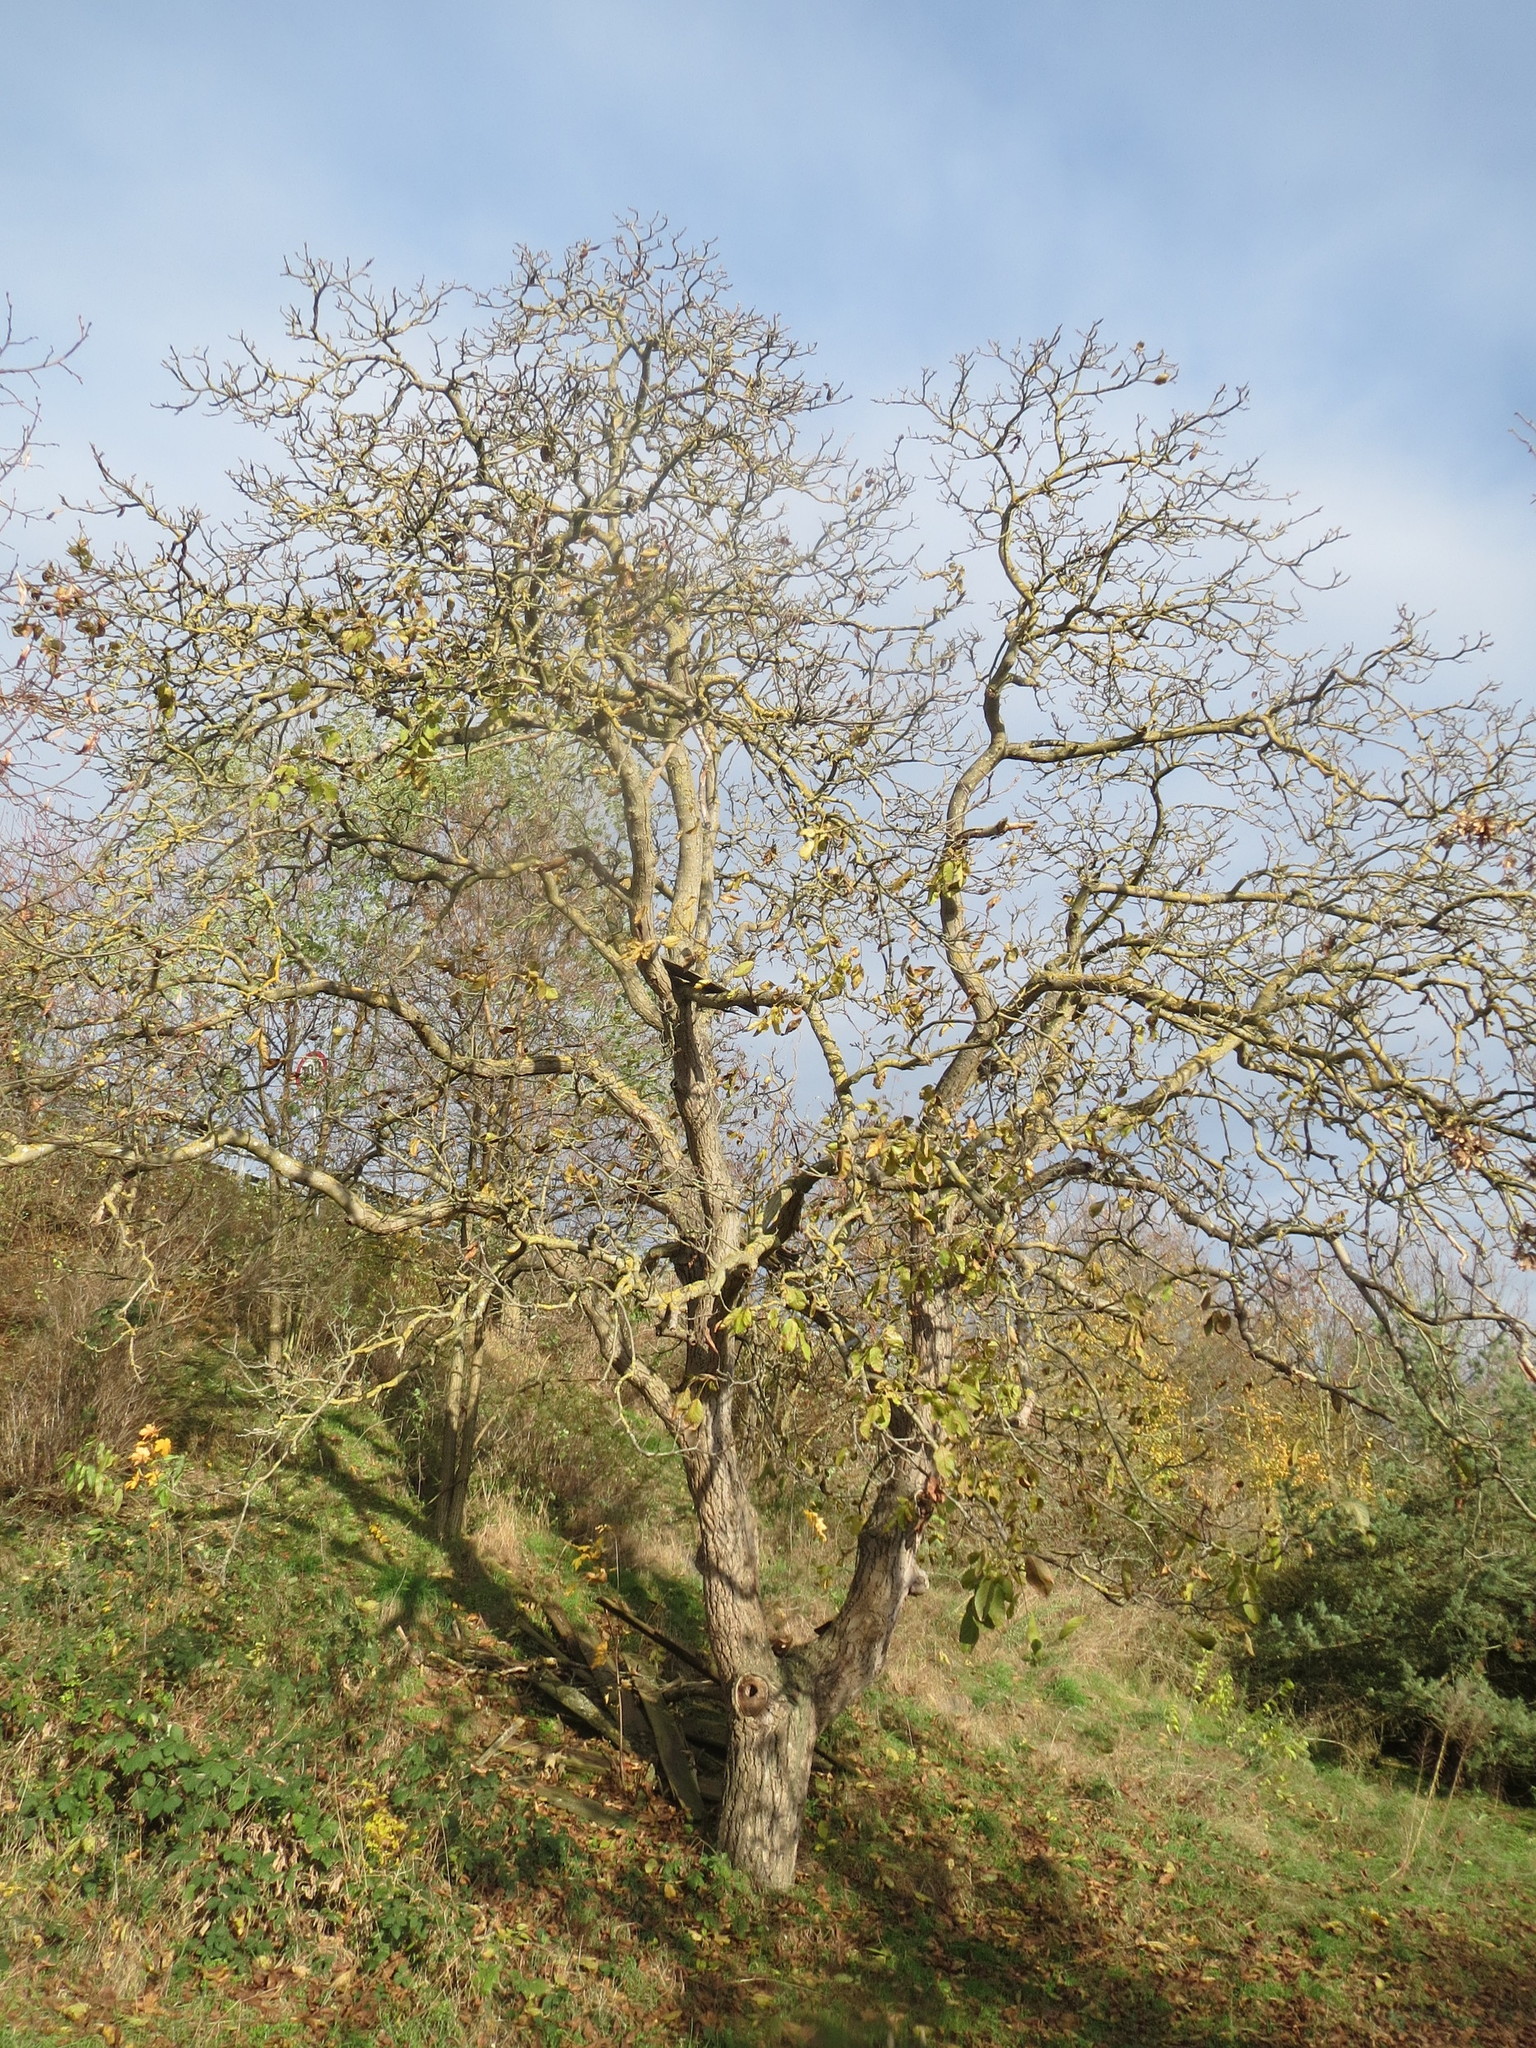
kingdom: Plantae
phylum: Tracheophyta
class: Magnoliopsida
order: Fagales
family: Juglandaceae
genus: Juglans
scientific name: Juglans regia
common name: Walnut
